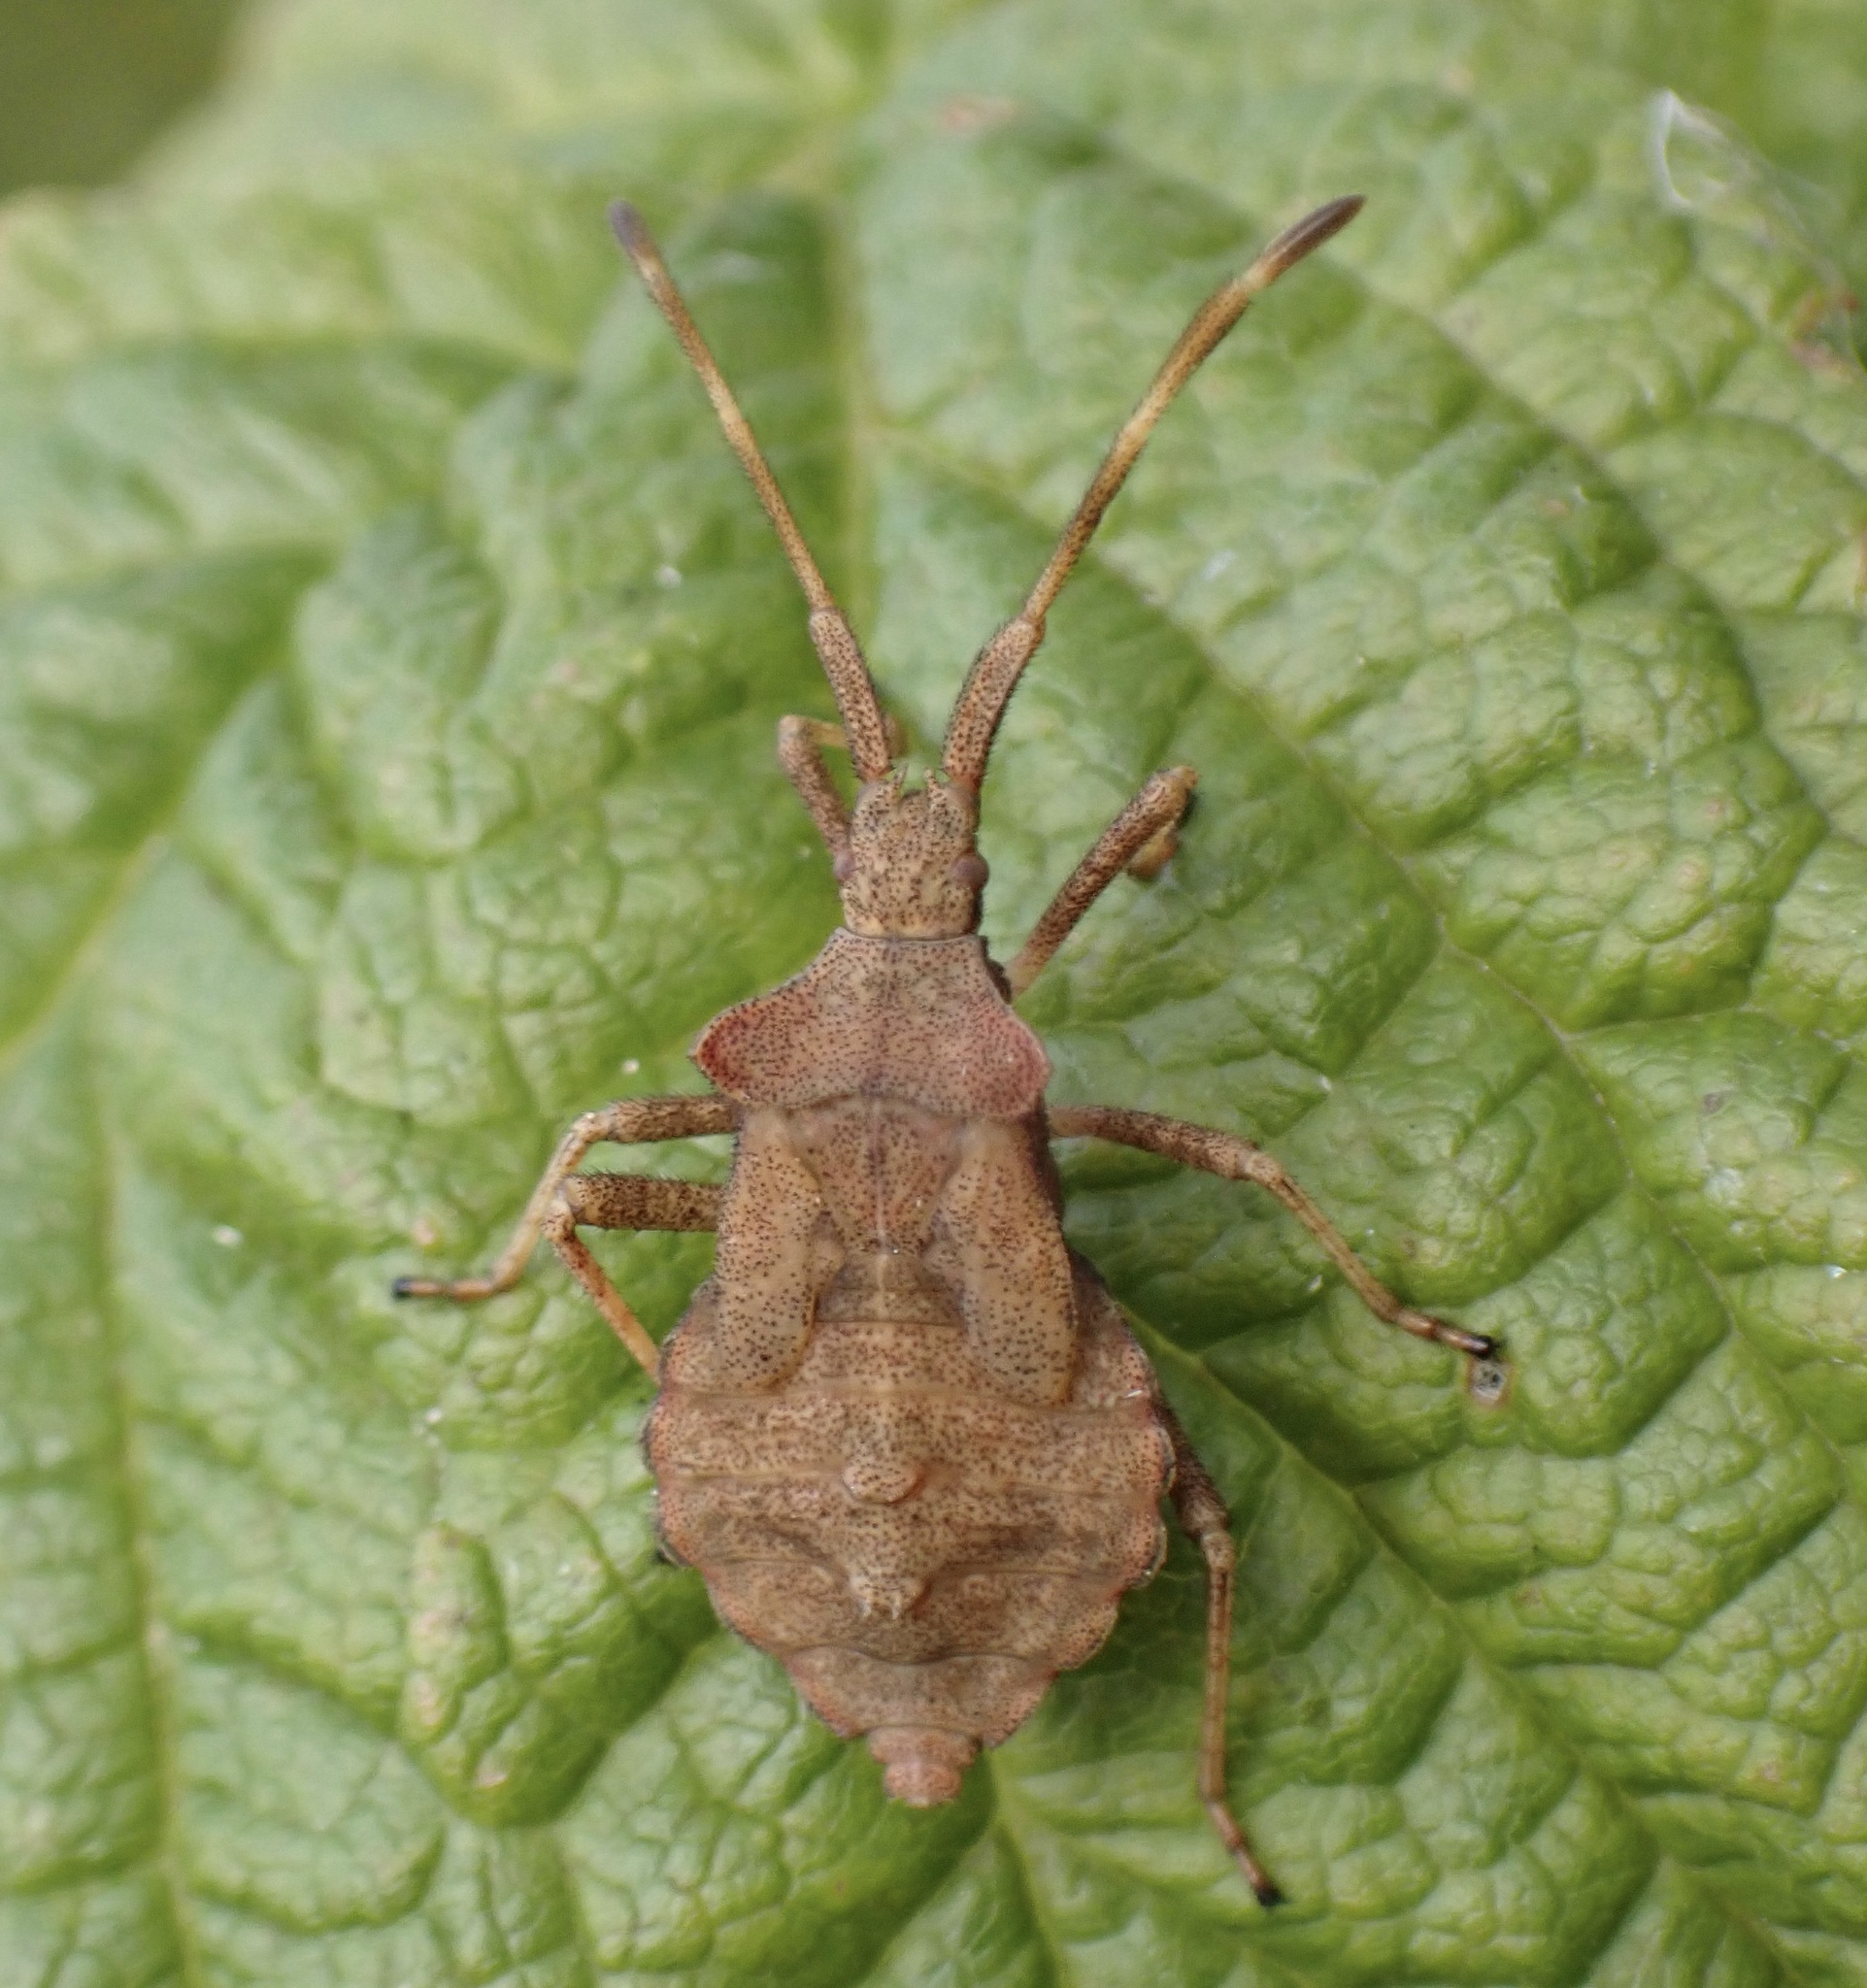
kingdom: Animalia
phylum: Arthropoda
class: Insecta
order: Hemiptera
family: Coreidae
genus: Coreus
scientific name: Coreus marginatus
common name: Dock bug
